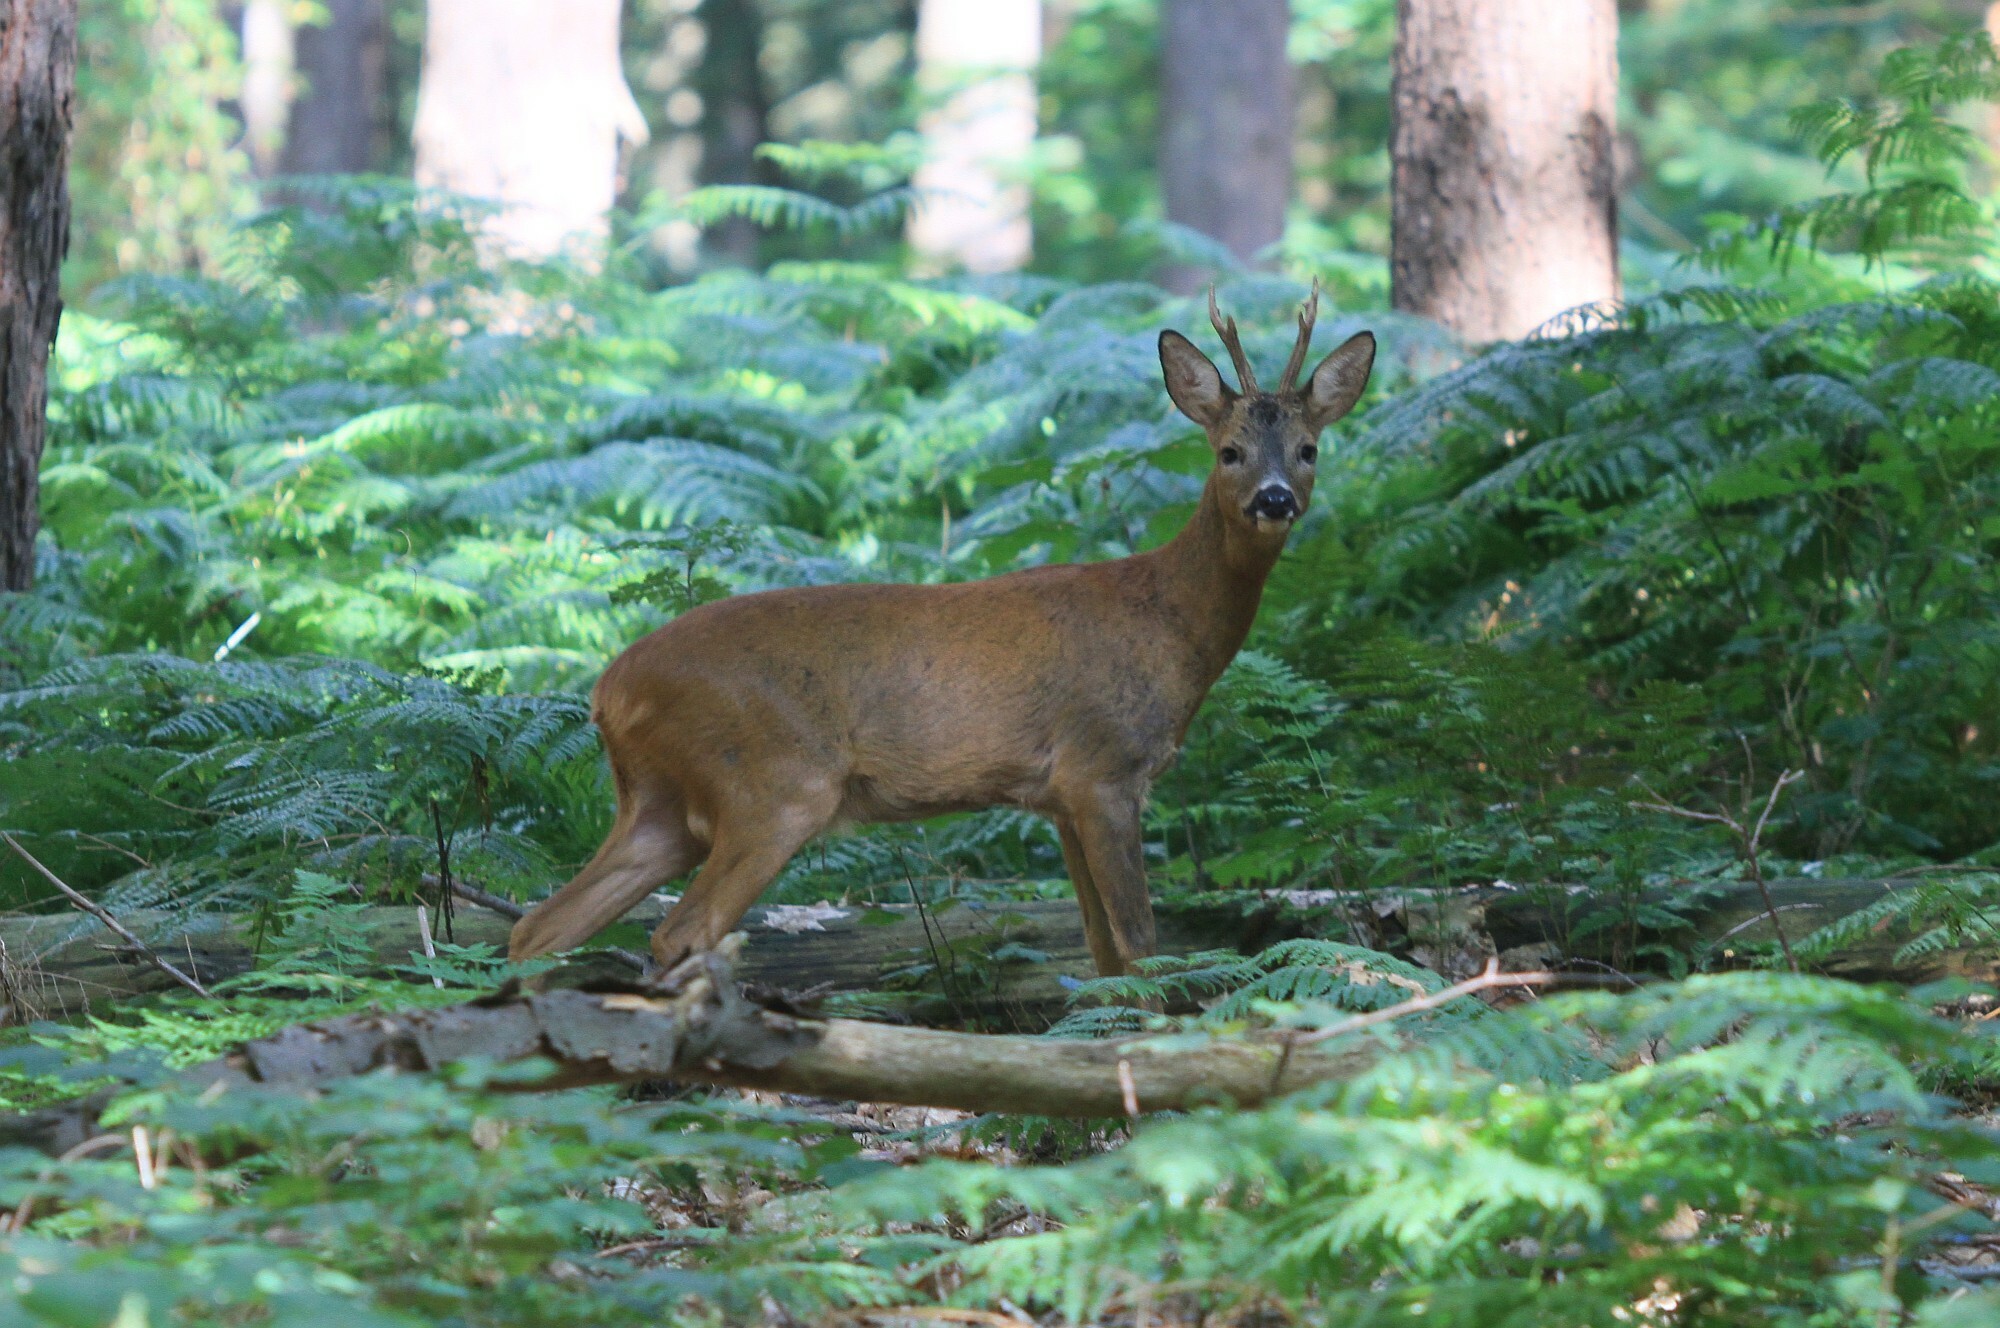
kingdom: Animalia
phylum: Chordata
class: Mammalia
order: Artiodactyla
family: Cervidae
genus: Capreolus
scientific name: Capreolus capreolus
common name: Western roe deer
